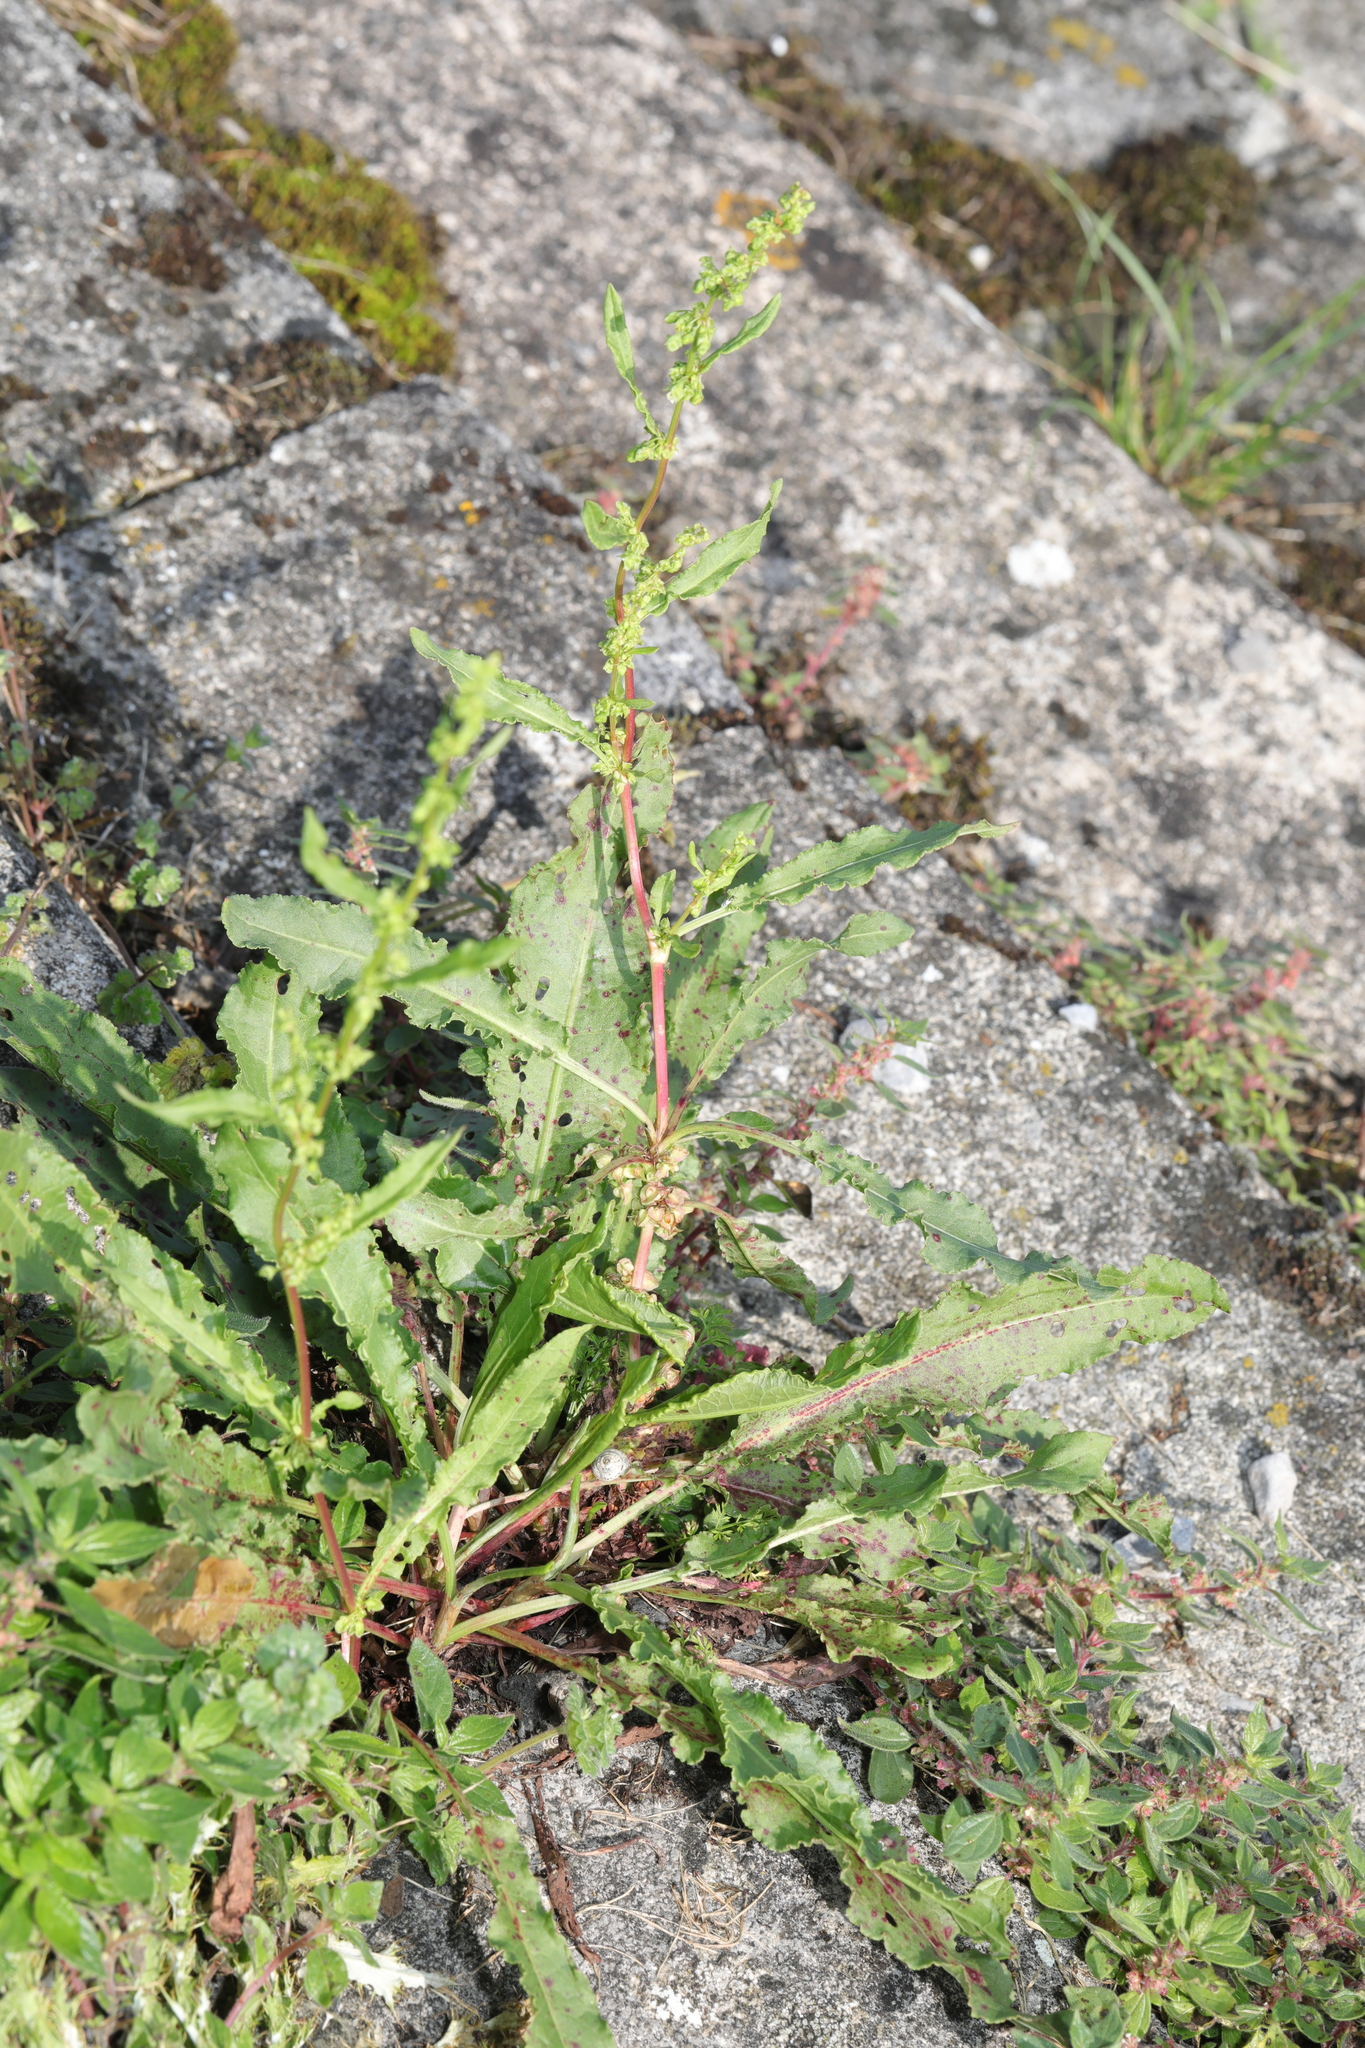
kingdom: Plantae
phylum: Tracheophyta
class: Magnoliopsida
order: Caryophyllales
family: Polygonaceae
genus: Rumex
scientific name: Rumex crispus
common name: Curled dock
